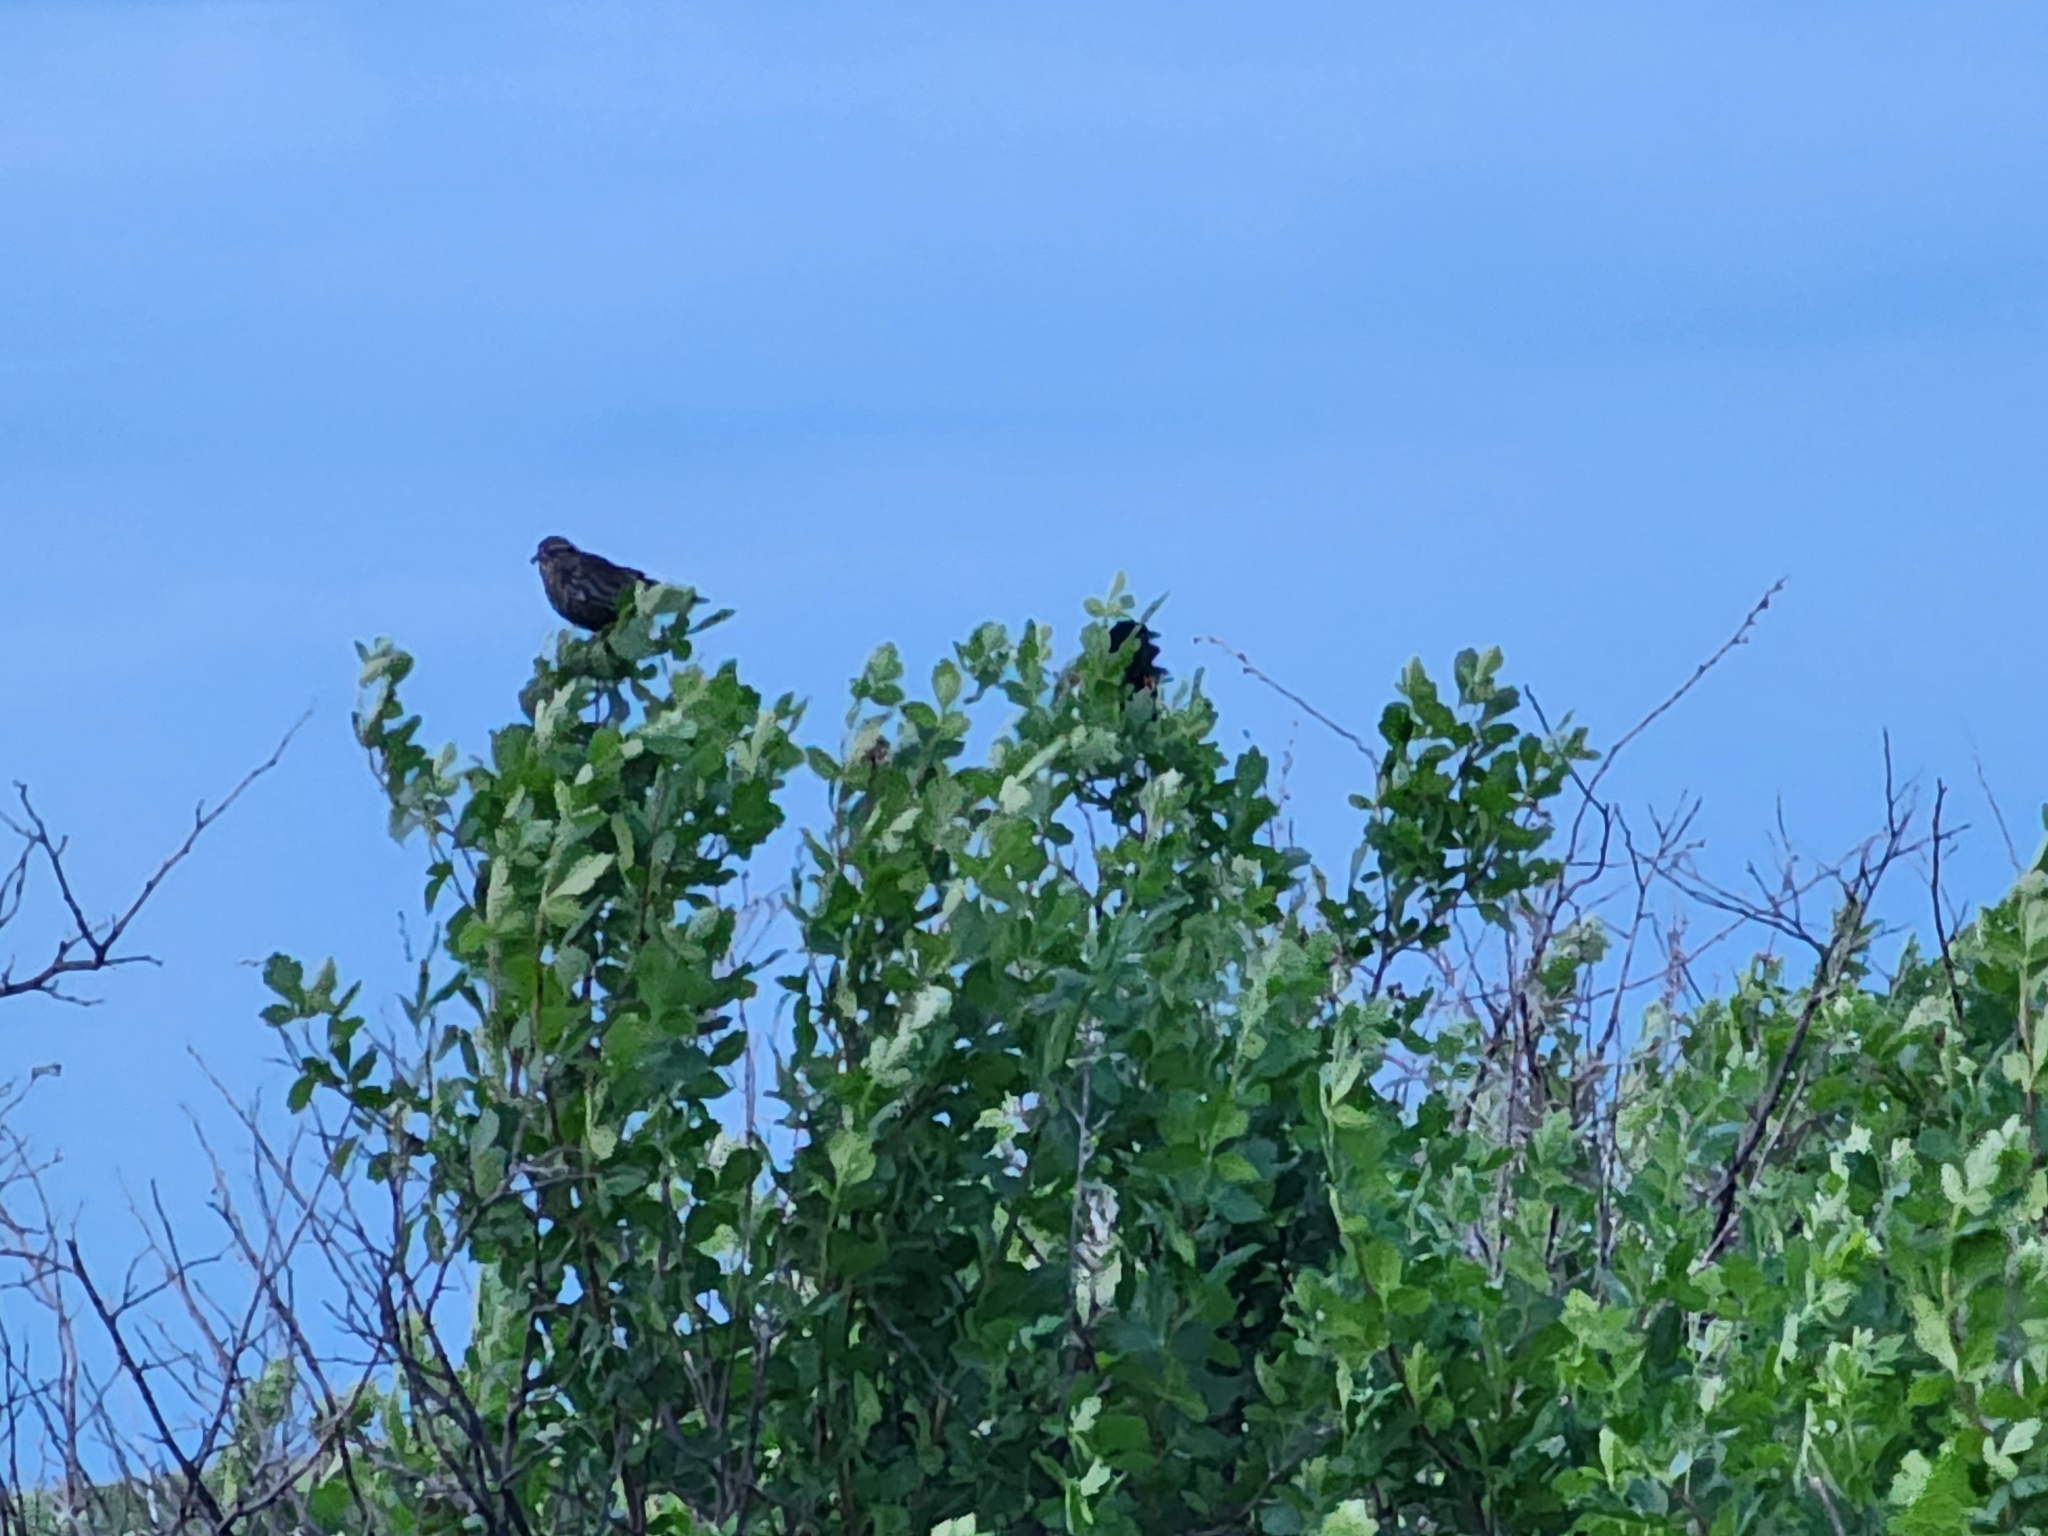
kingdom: Animalia
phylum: Chordata
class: Aves
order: Passeriformes
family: Icteridae
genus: Agelaius
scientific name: Agelaius phoeniceus
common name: Red-winged blackbird
